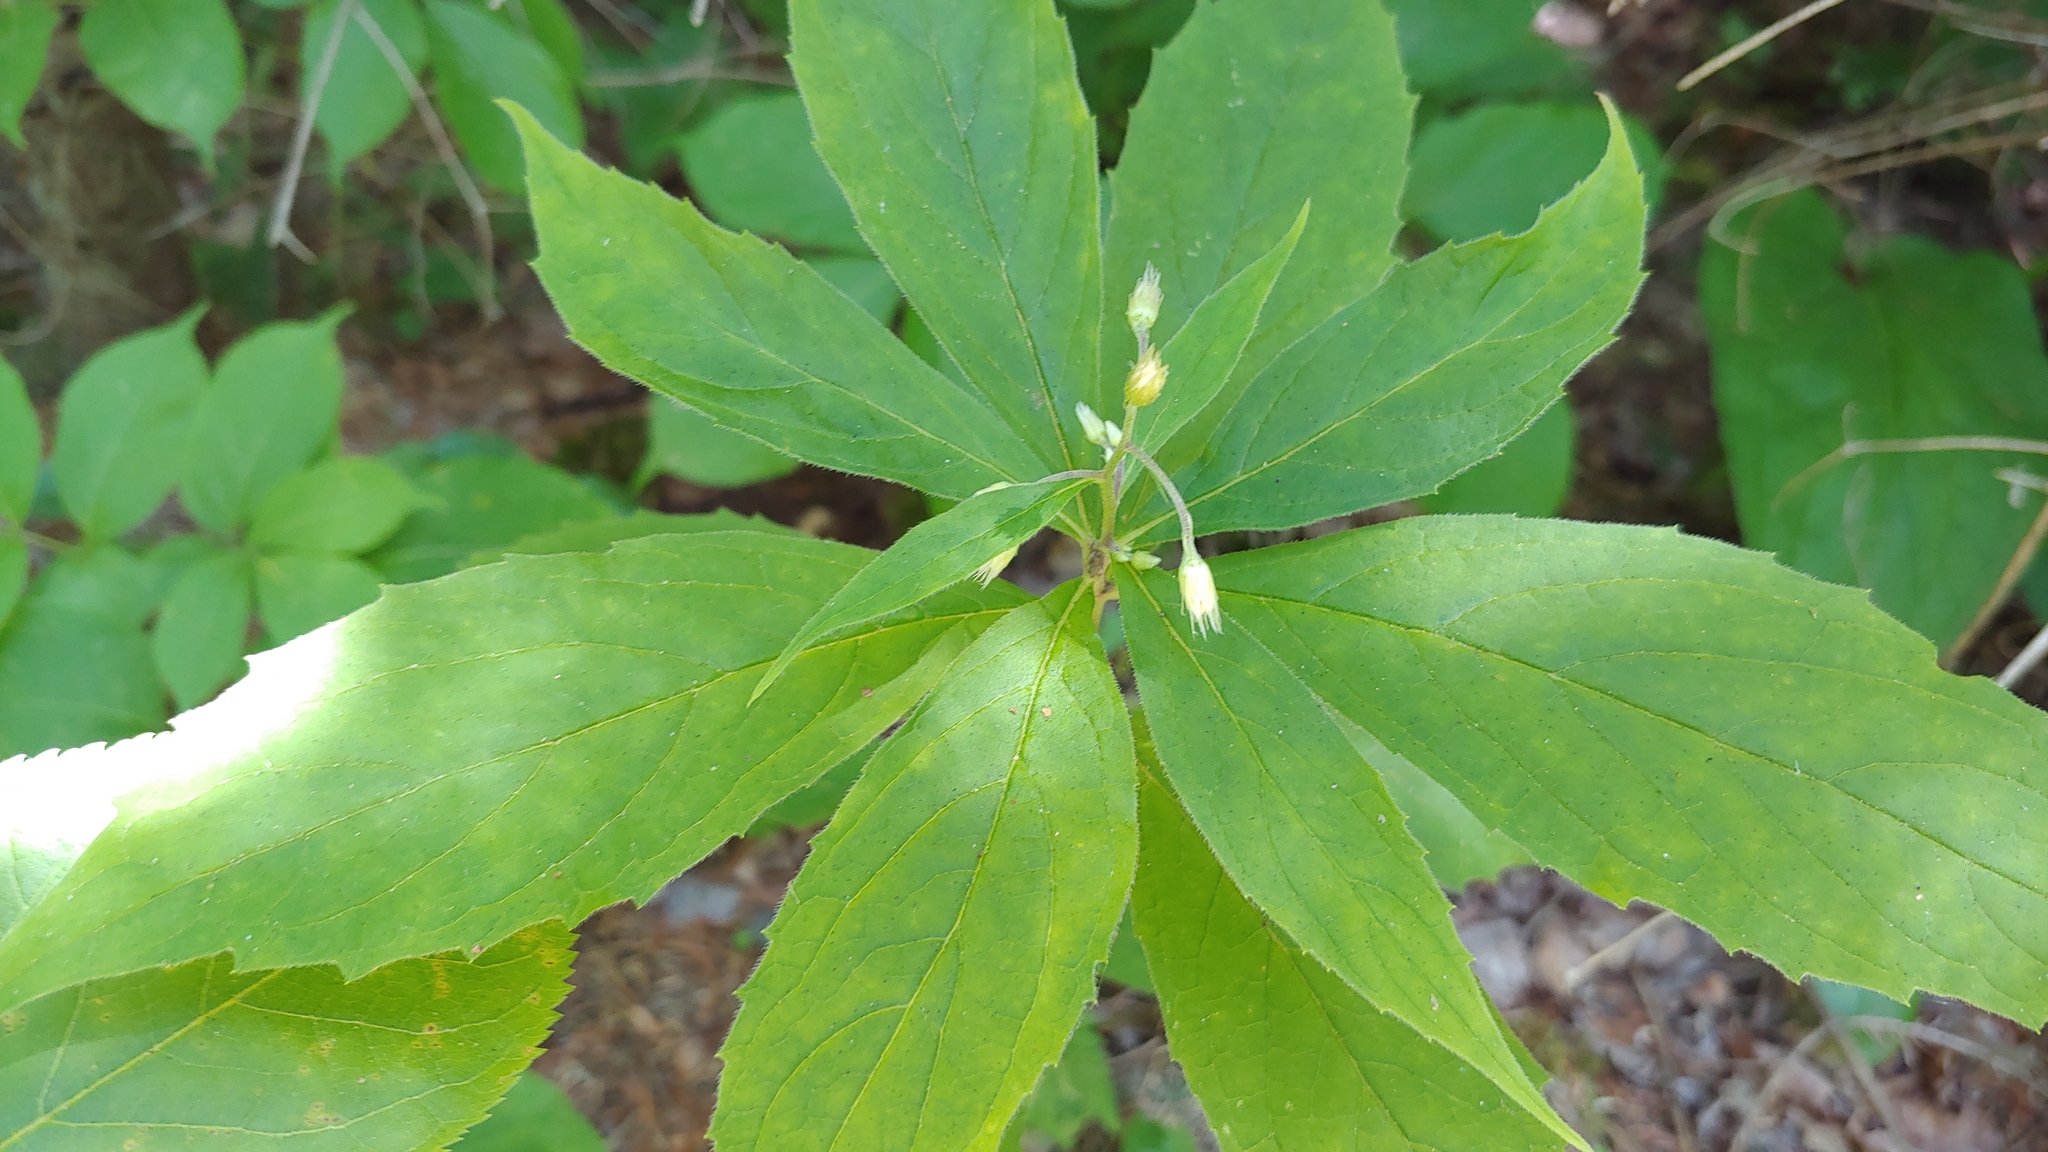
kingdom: Plantae
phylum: Tracheophyta
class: Magnoliopsida
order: Asterales
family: Asteraceae
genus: Oclemena
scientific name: Oclemena acuminata
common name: Mountain aster
